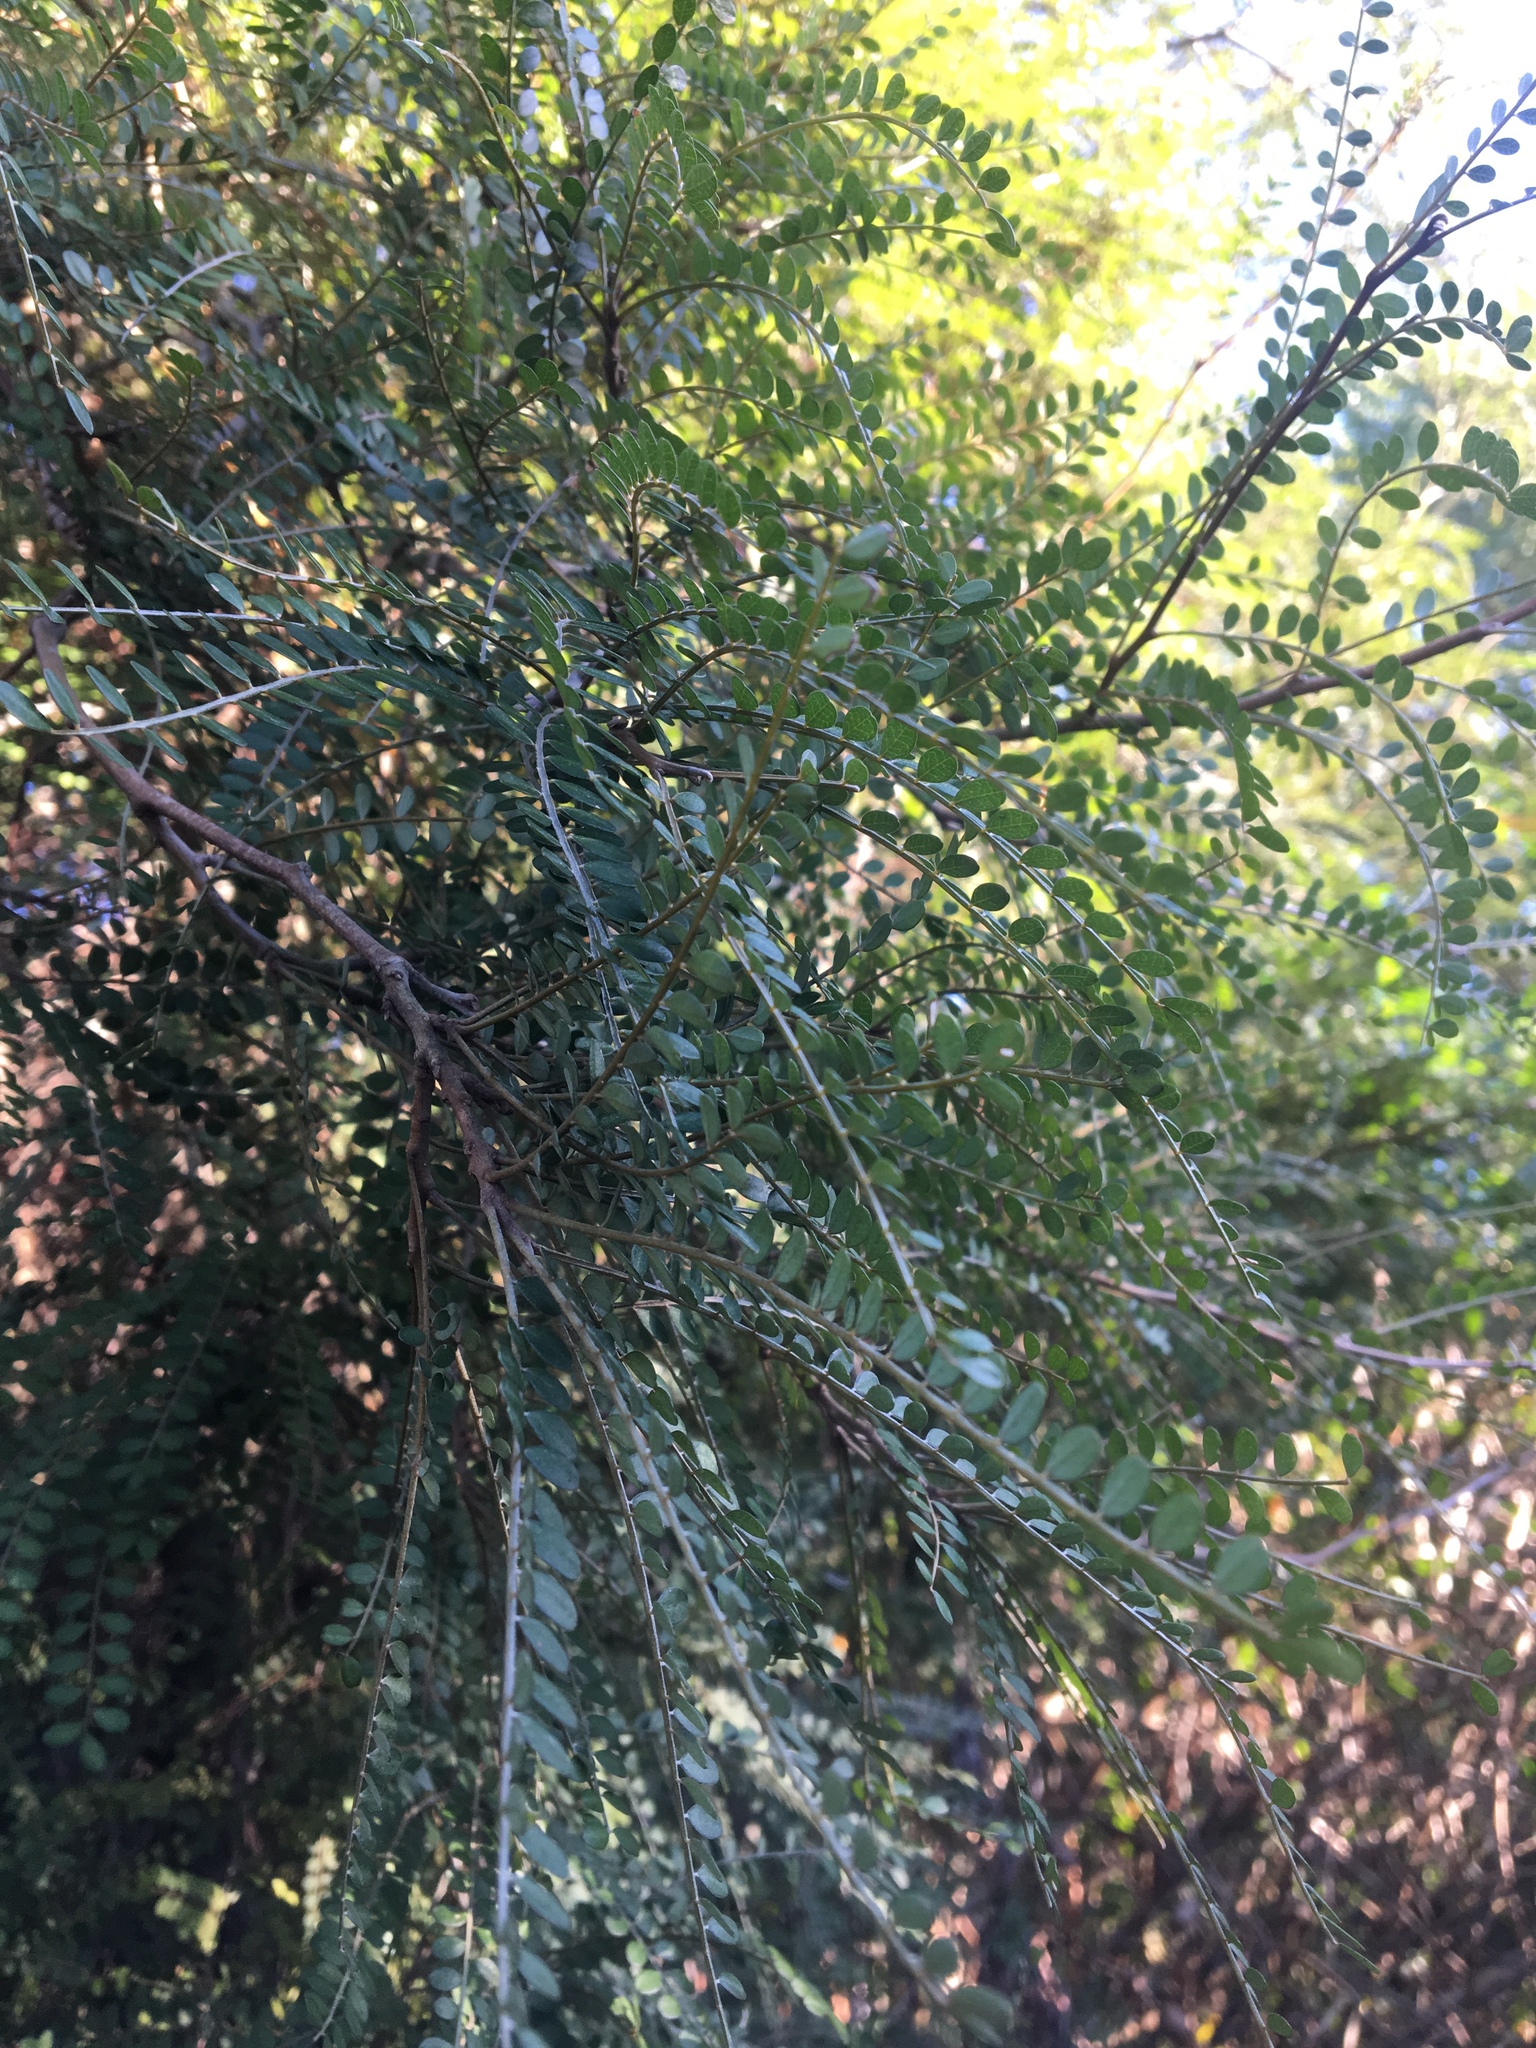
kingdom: Plantae
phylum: Tracheophyta
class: Magnoliopsida
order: Fabales
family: Fabaceae
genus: Sophora
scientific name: Sophora microphylla
